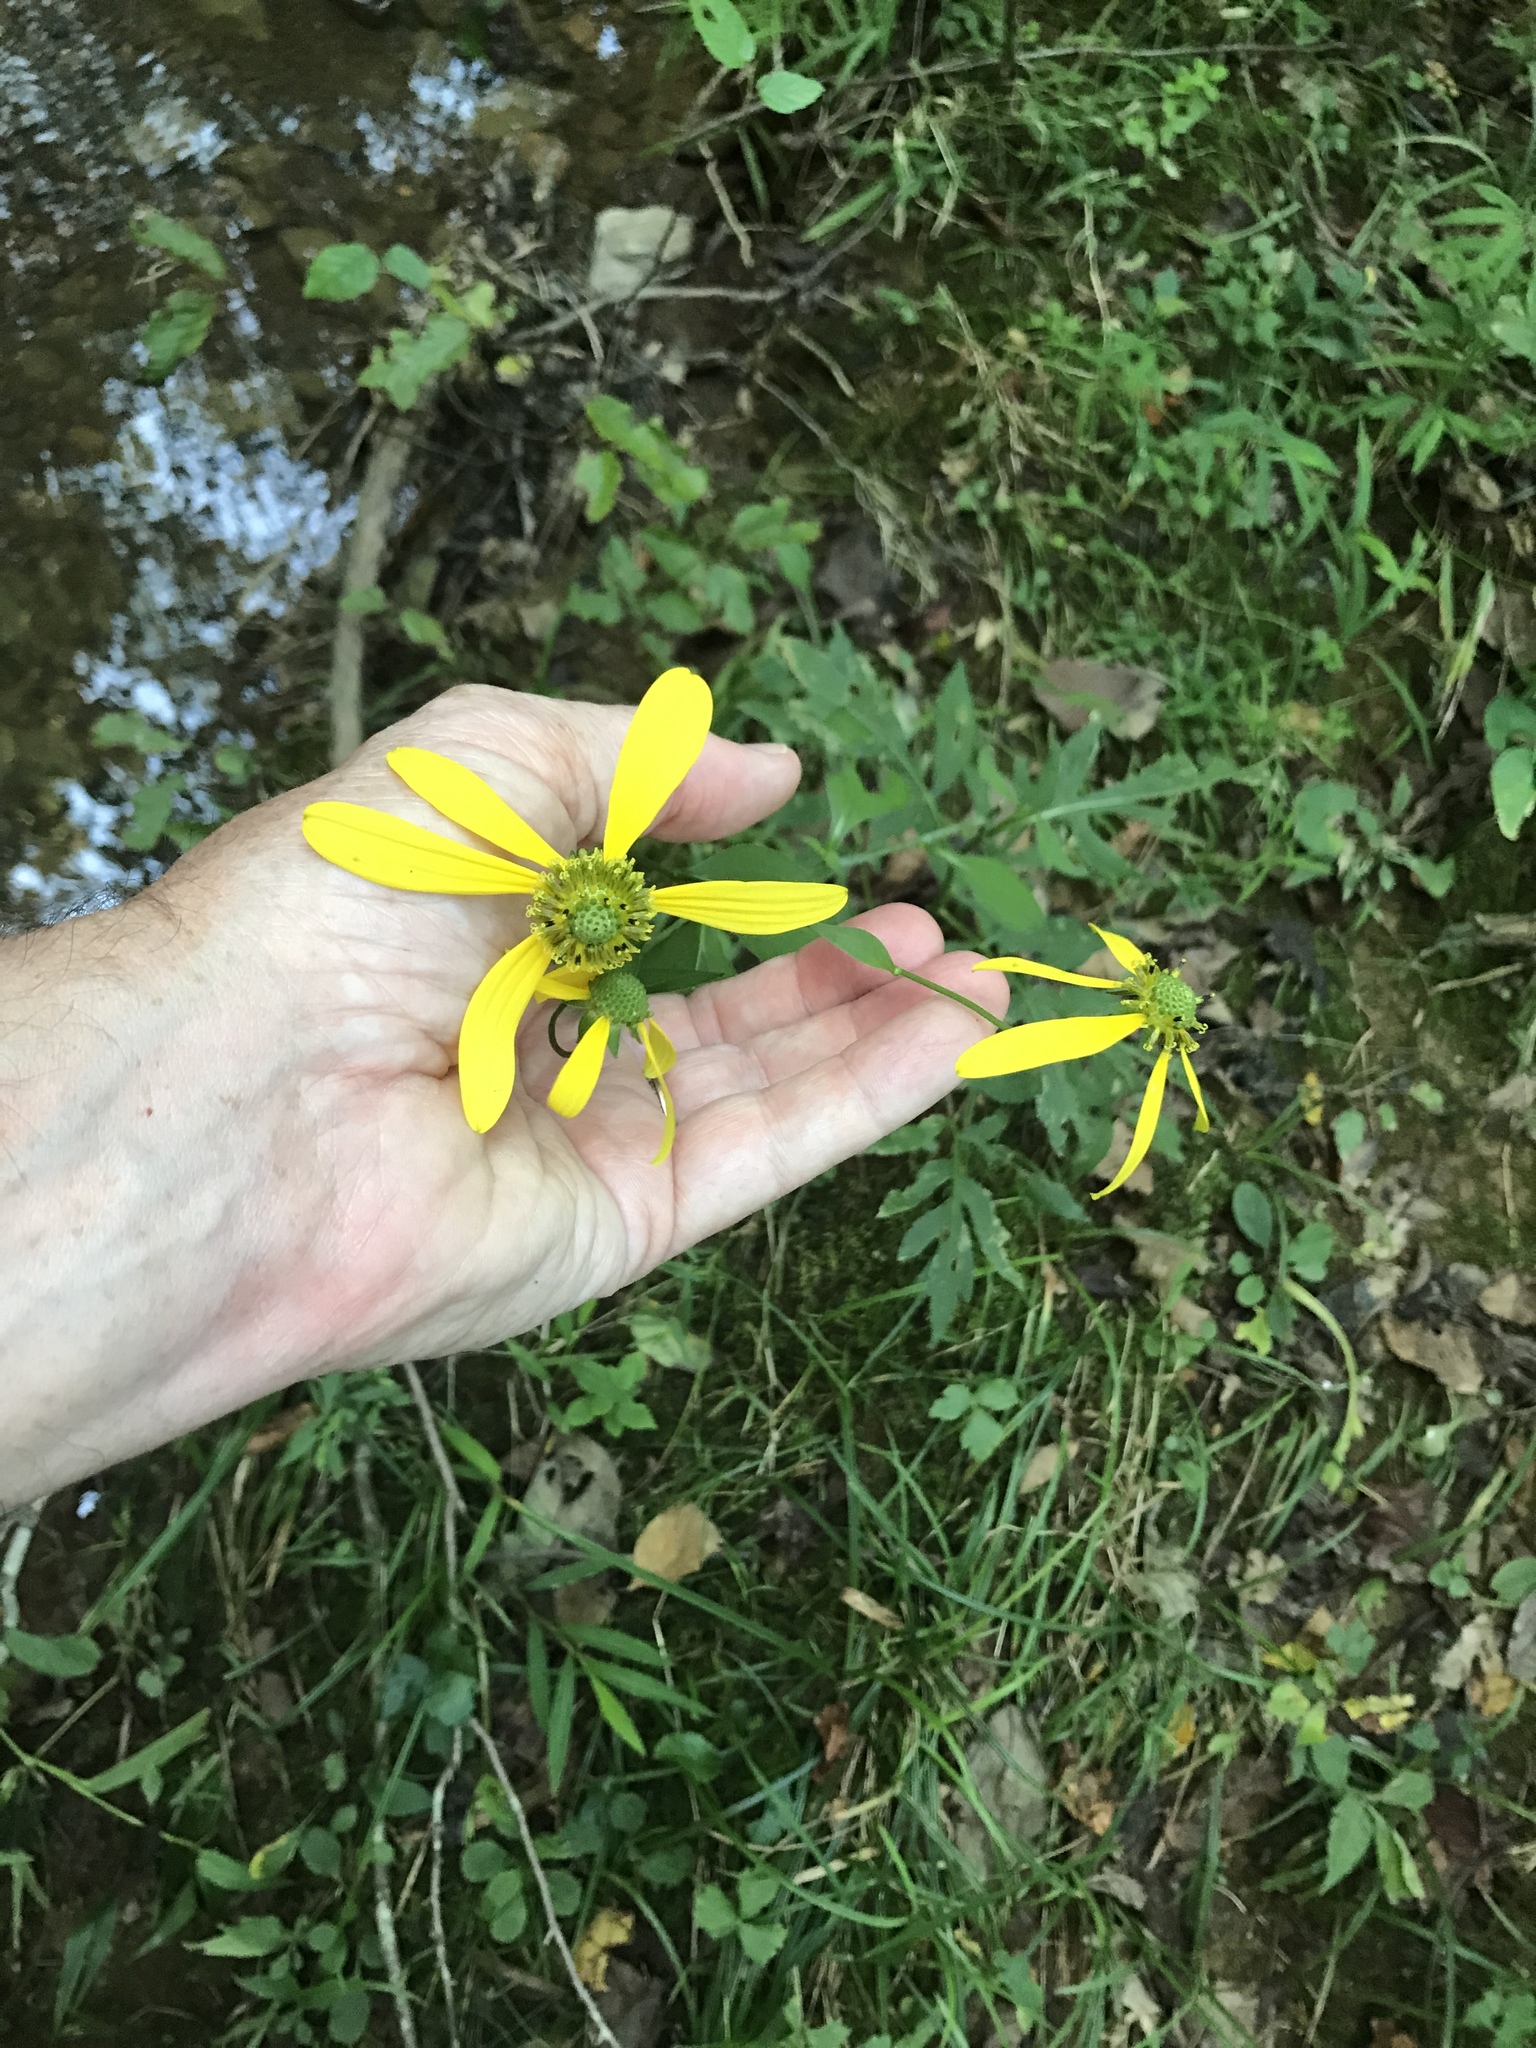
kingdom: Plantae
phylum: Tracheophyta
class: Magnoliopsida
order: Asterales
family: Asteraceae
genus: Rudbeckia
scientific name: Rudbeckia laciniata
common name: Coneflower
